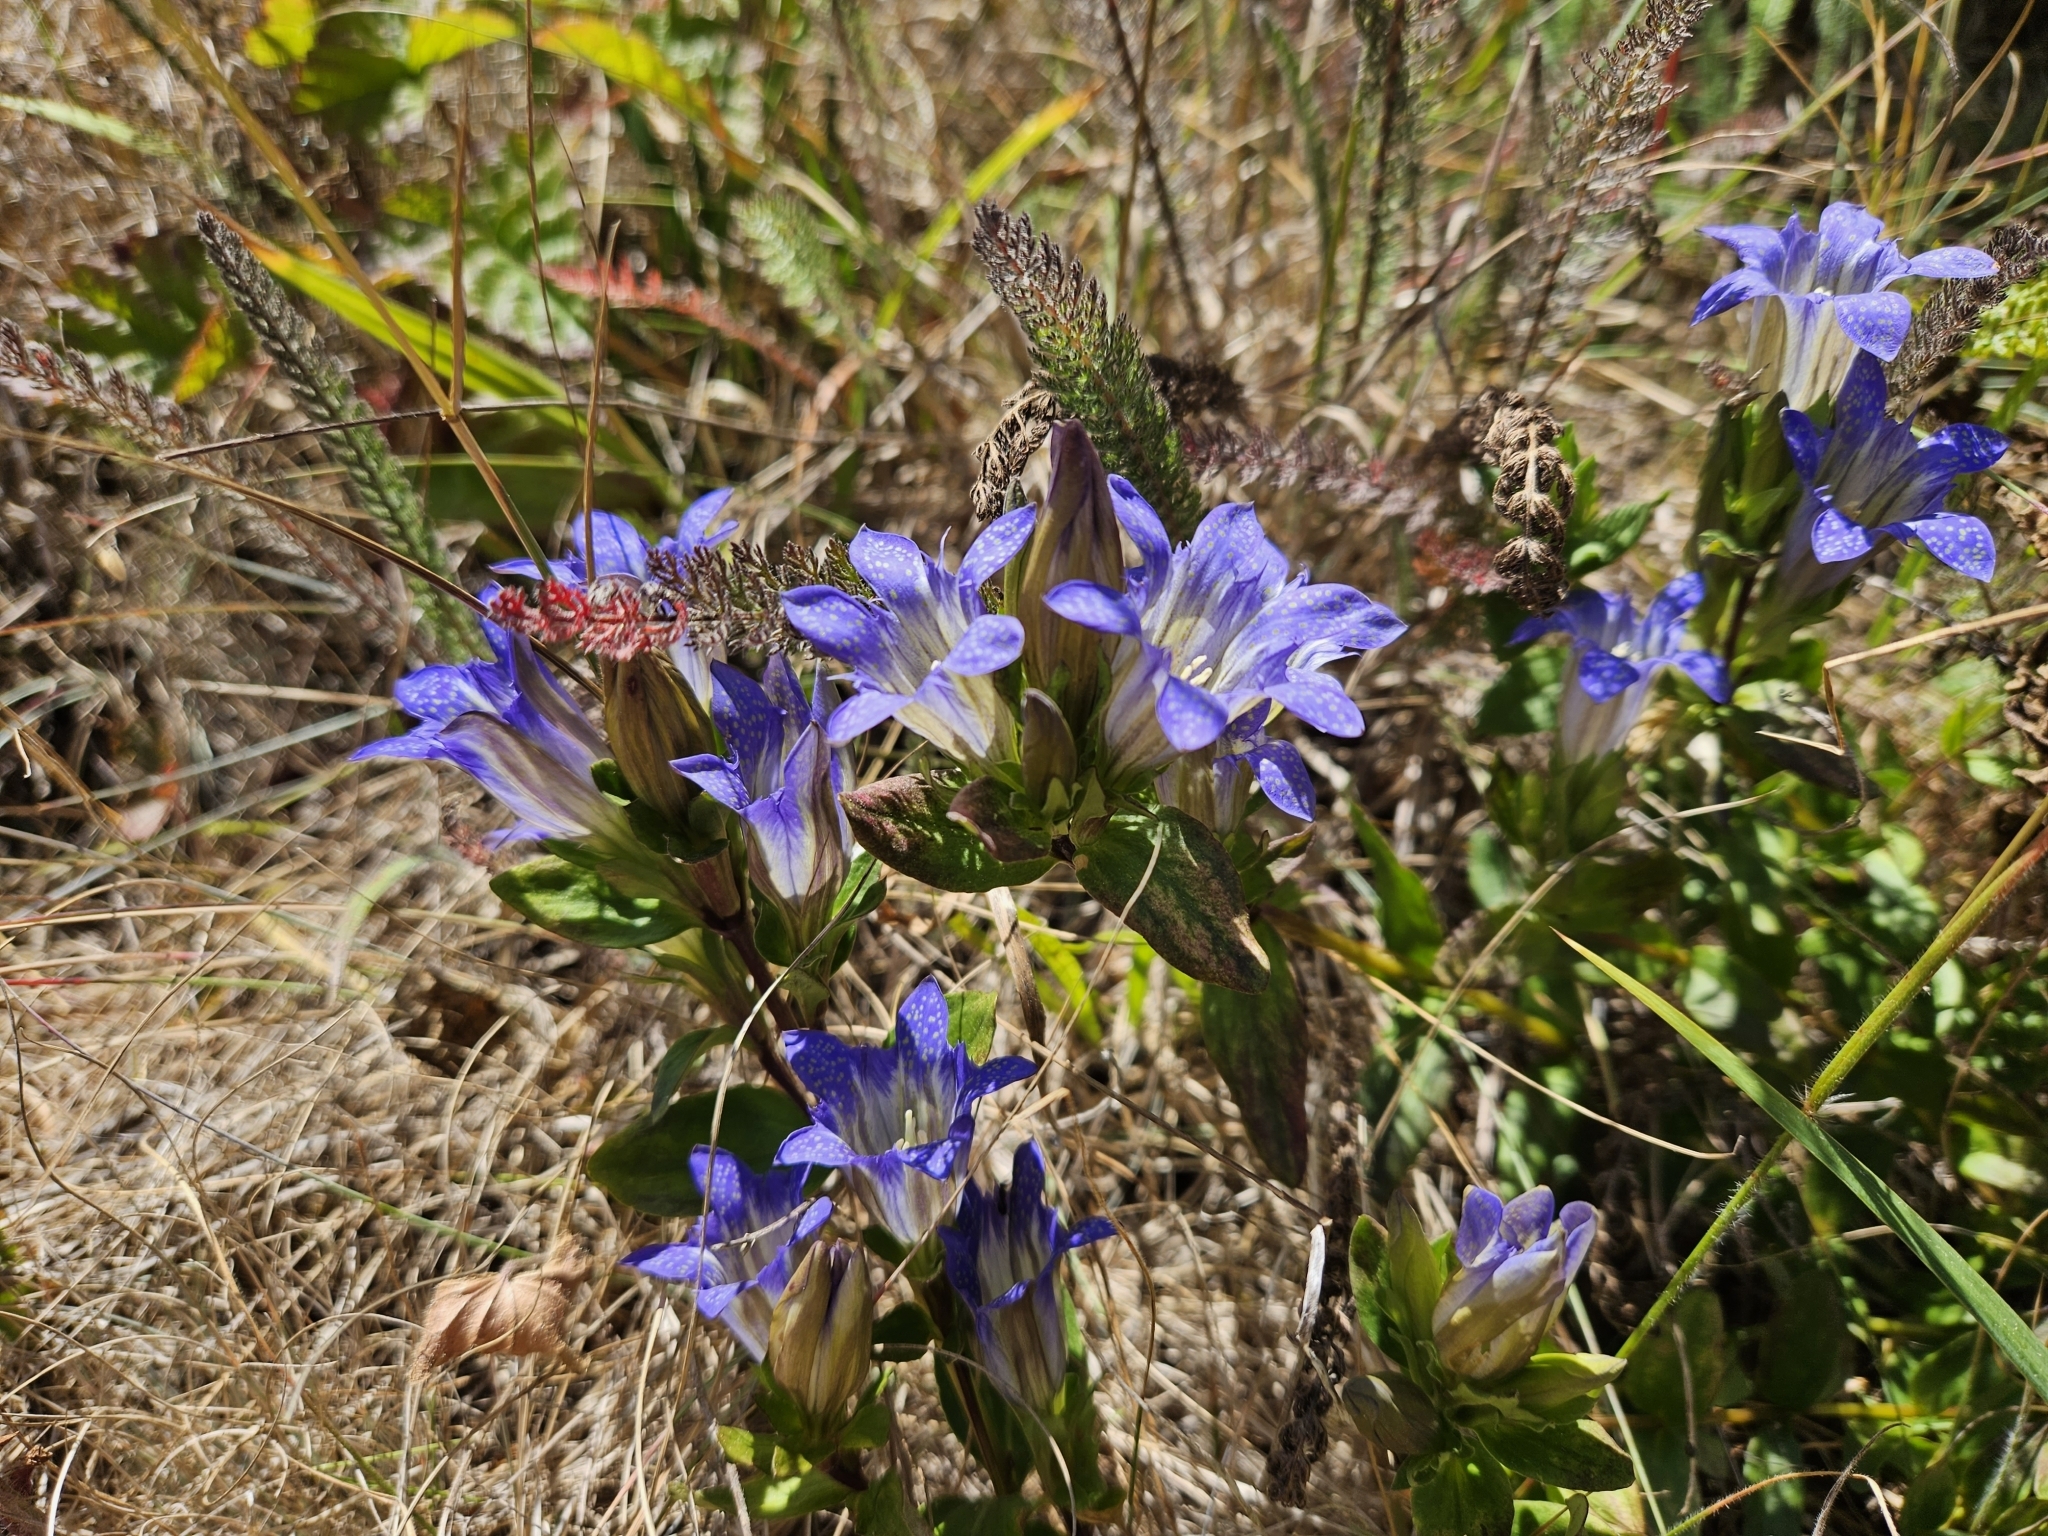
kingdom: Plantae
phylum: Tracheophyta
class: Magnoliopsida
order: Gentianales
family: Gentianaceae
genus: Gentiana
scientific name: Gentiana affinis
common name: Rocky mountain gentian
